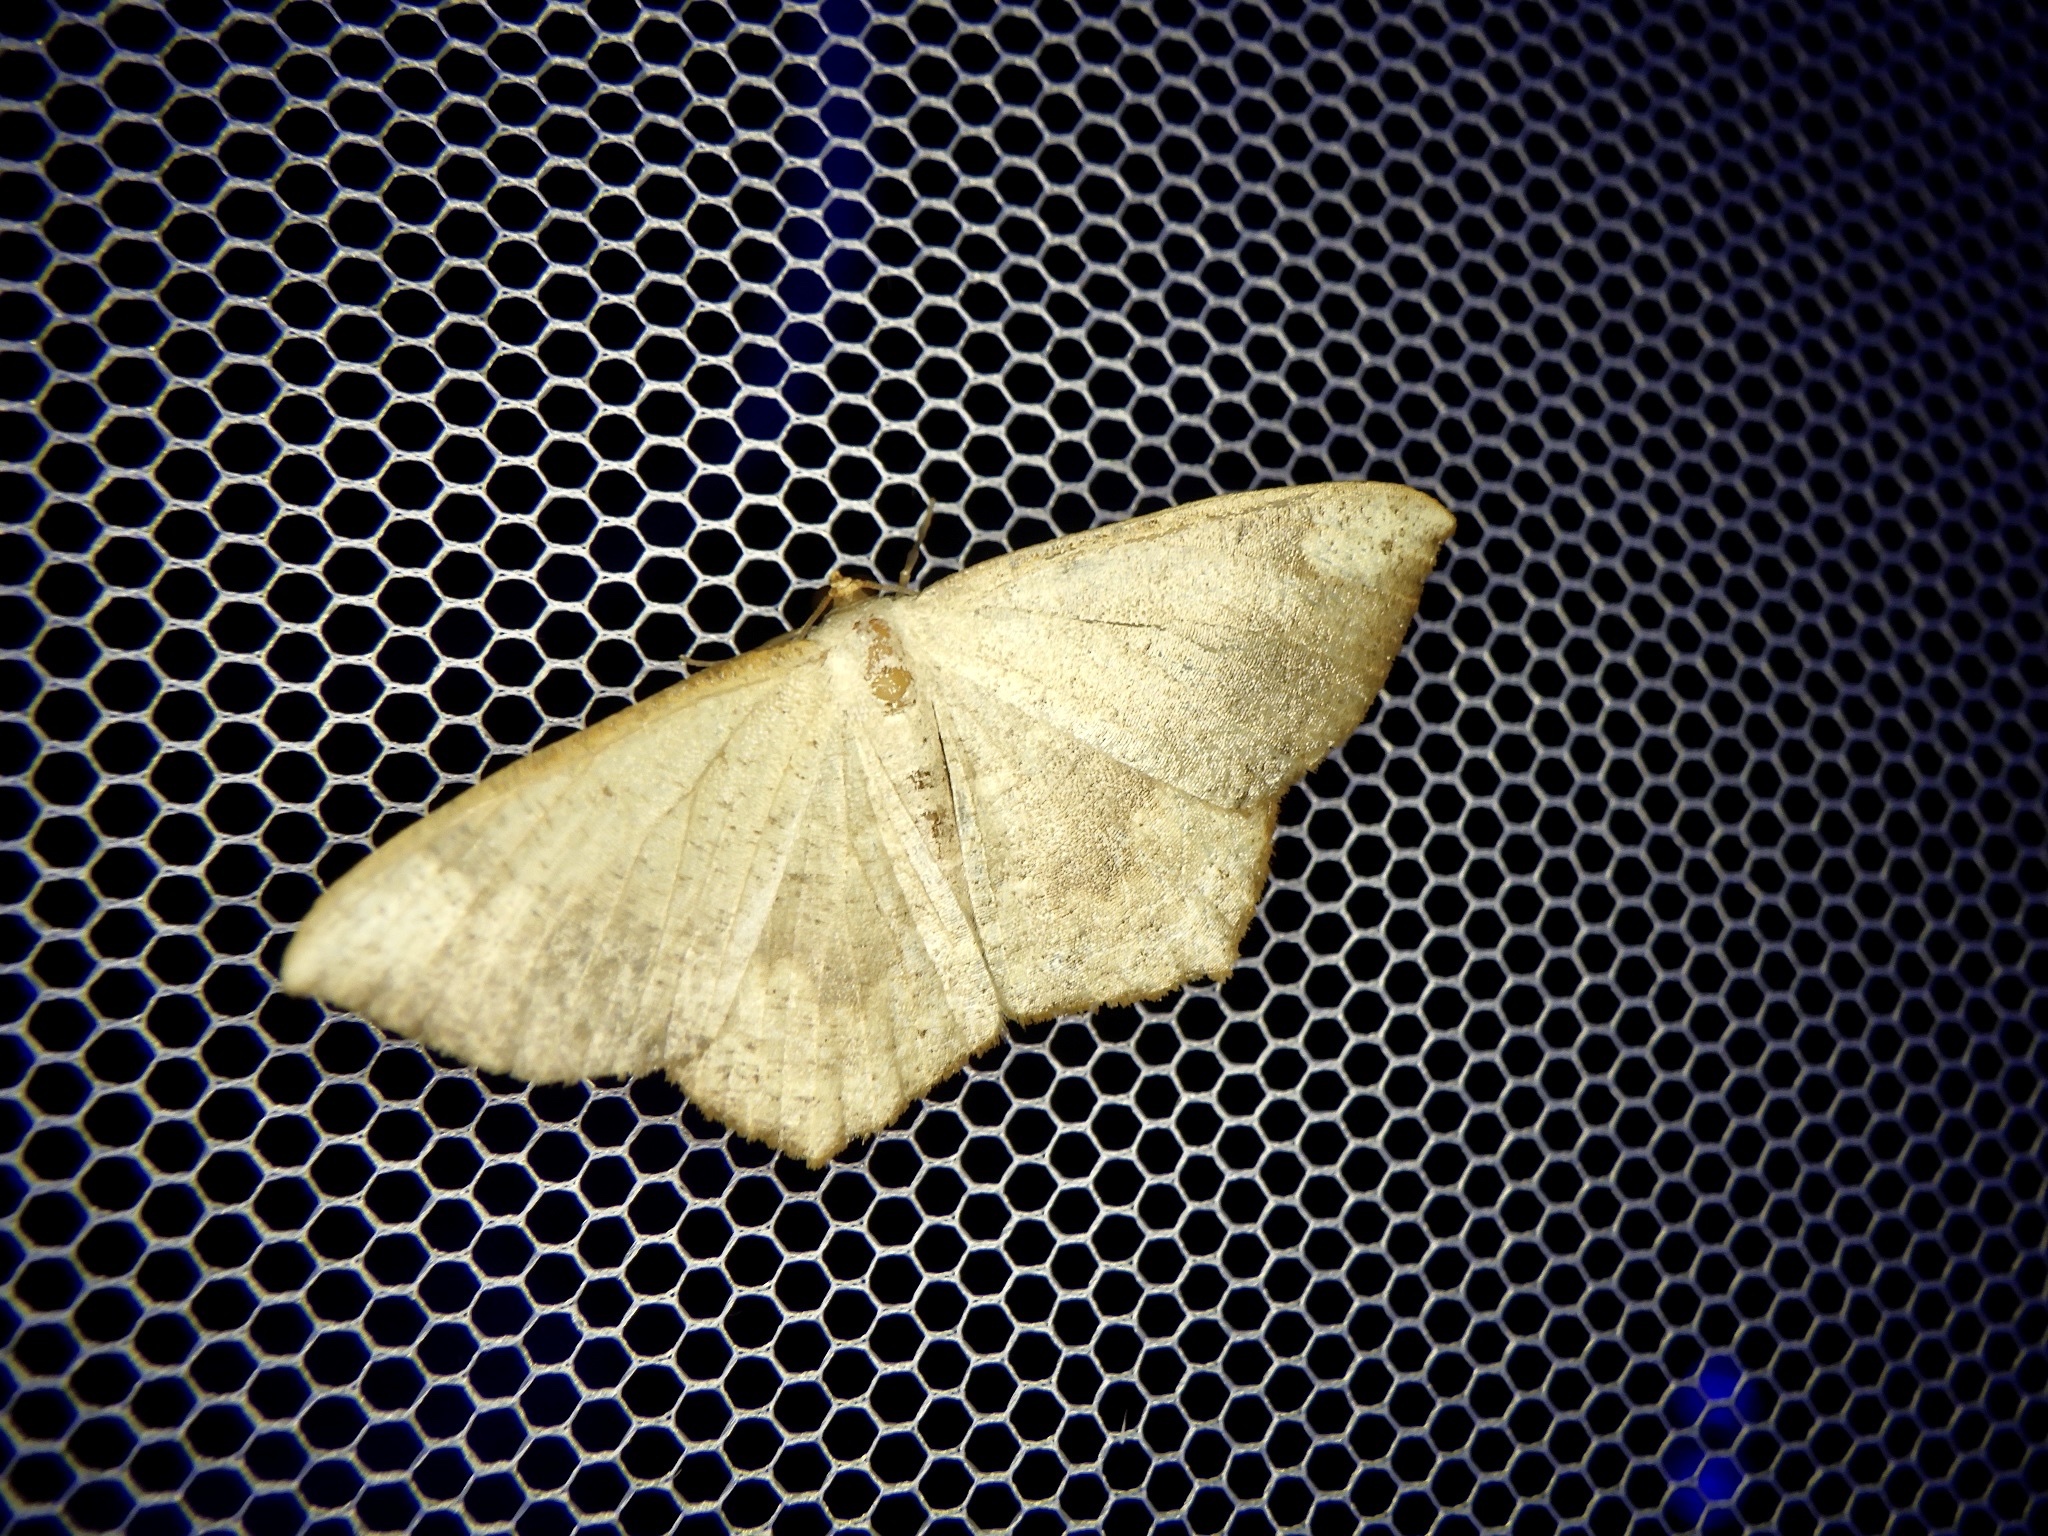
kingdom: Animalia
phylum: Arthropoda
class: Insecta
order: Lepidoptera
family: Geometridae
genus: Peratostega
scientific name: Peratostega deletaria
